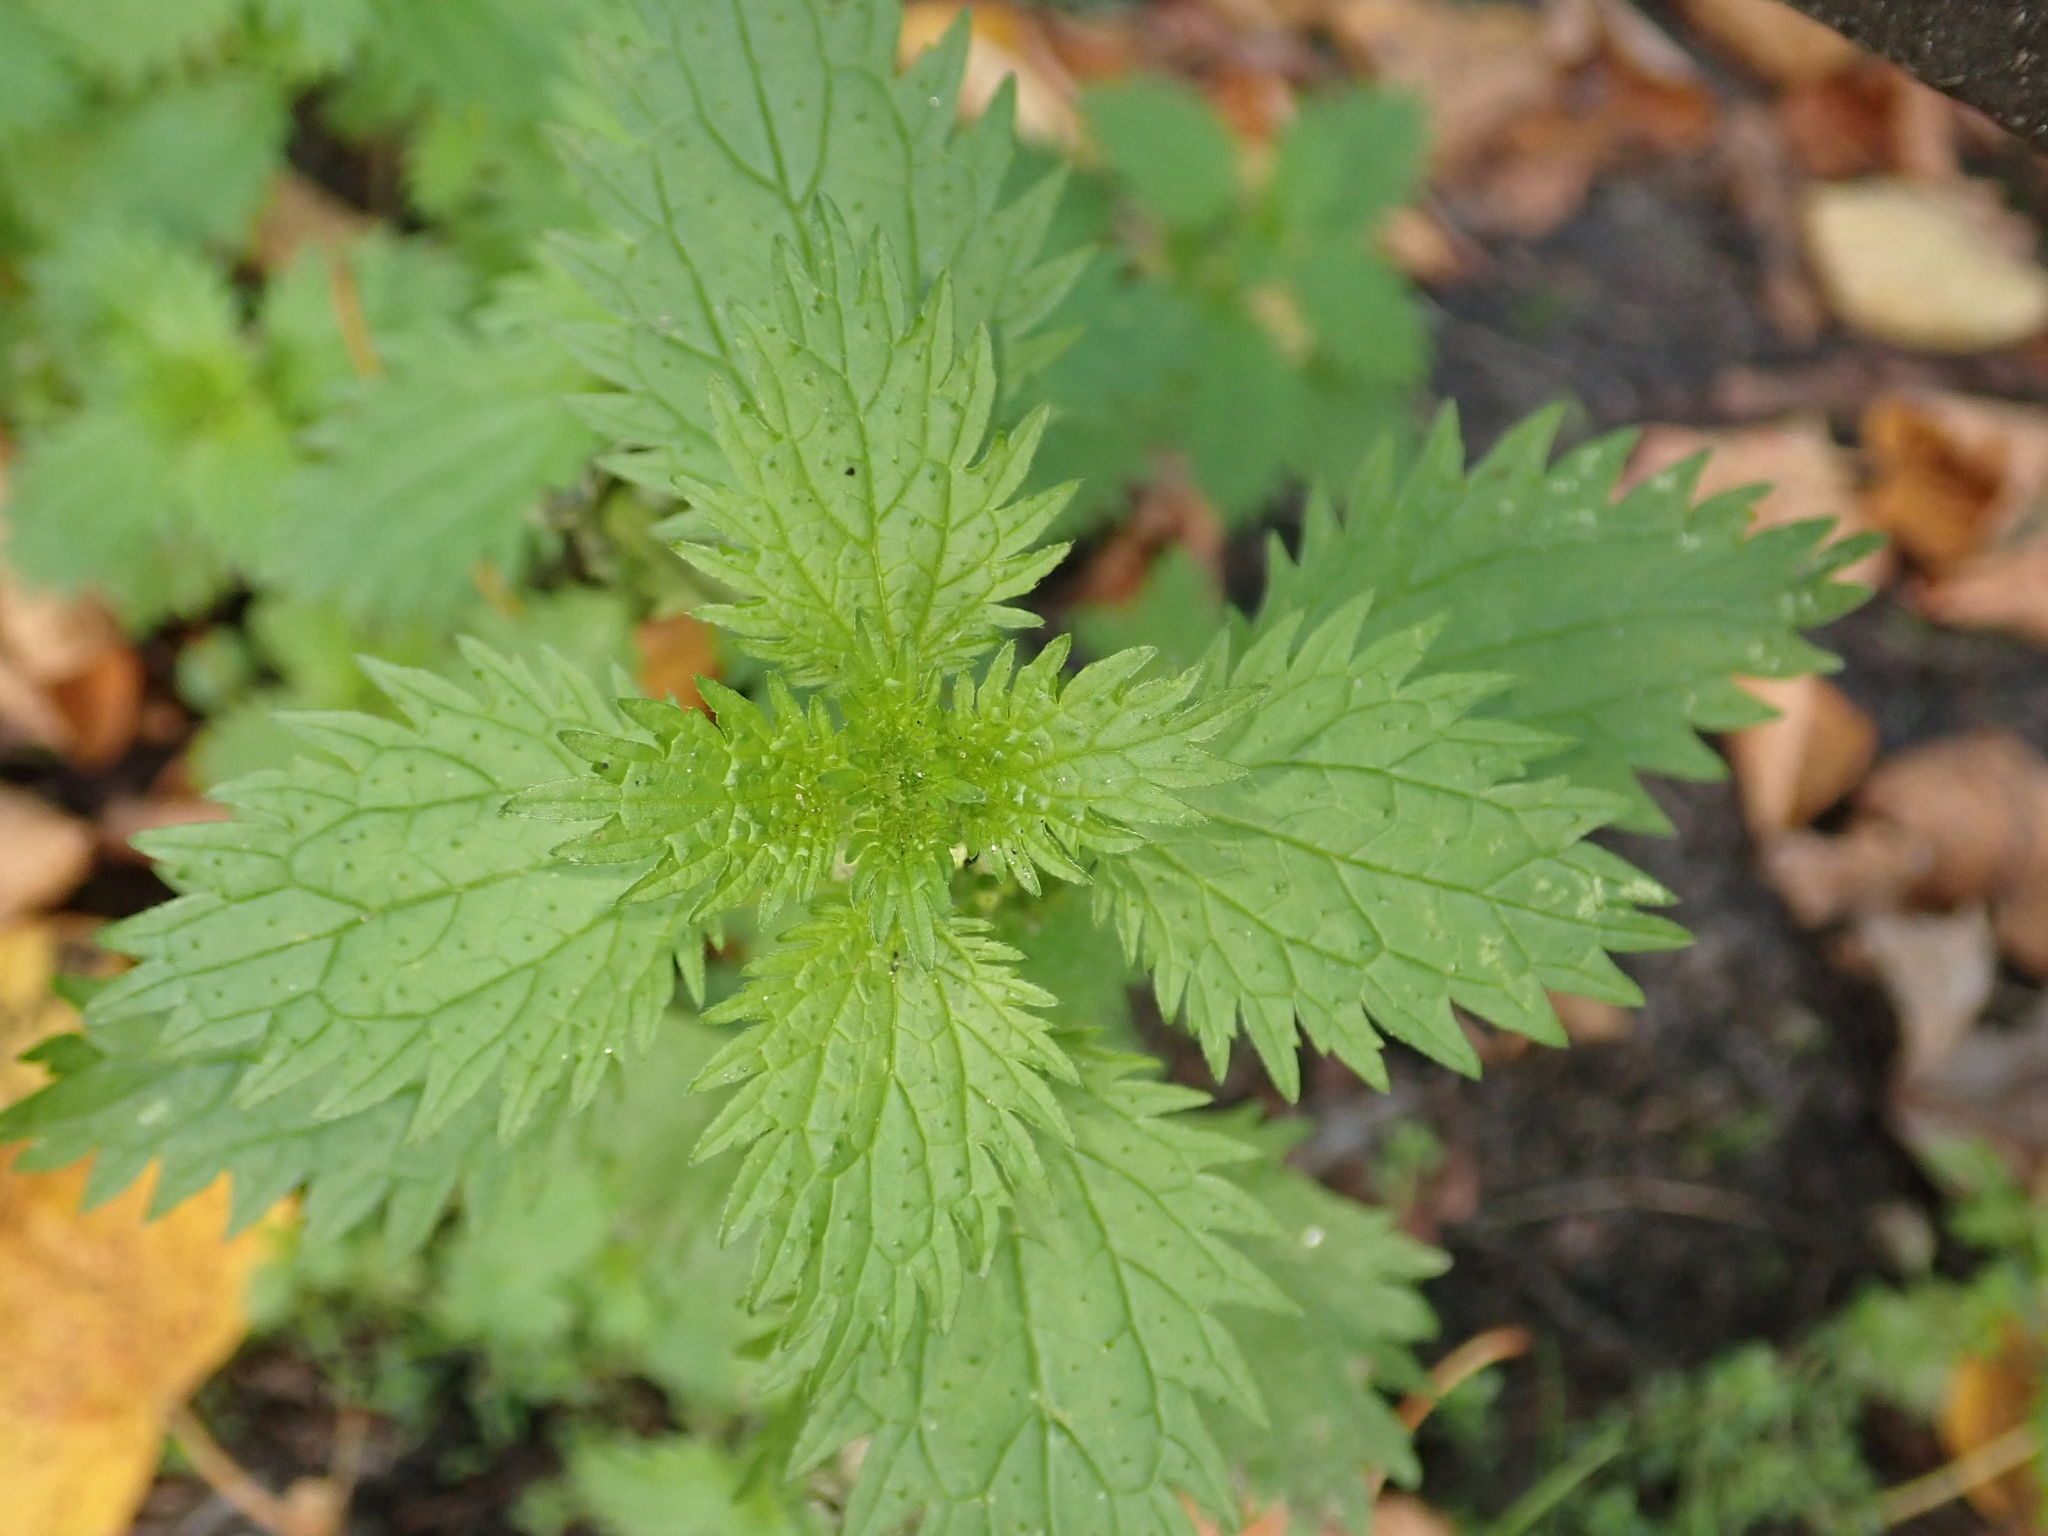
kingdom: Plantae
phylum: Tracheophyta
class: Magnoliopsida
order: Rosales
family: Urticaceae
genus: Urtica
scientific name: Urtica urens
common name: Dwarf nettle
